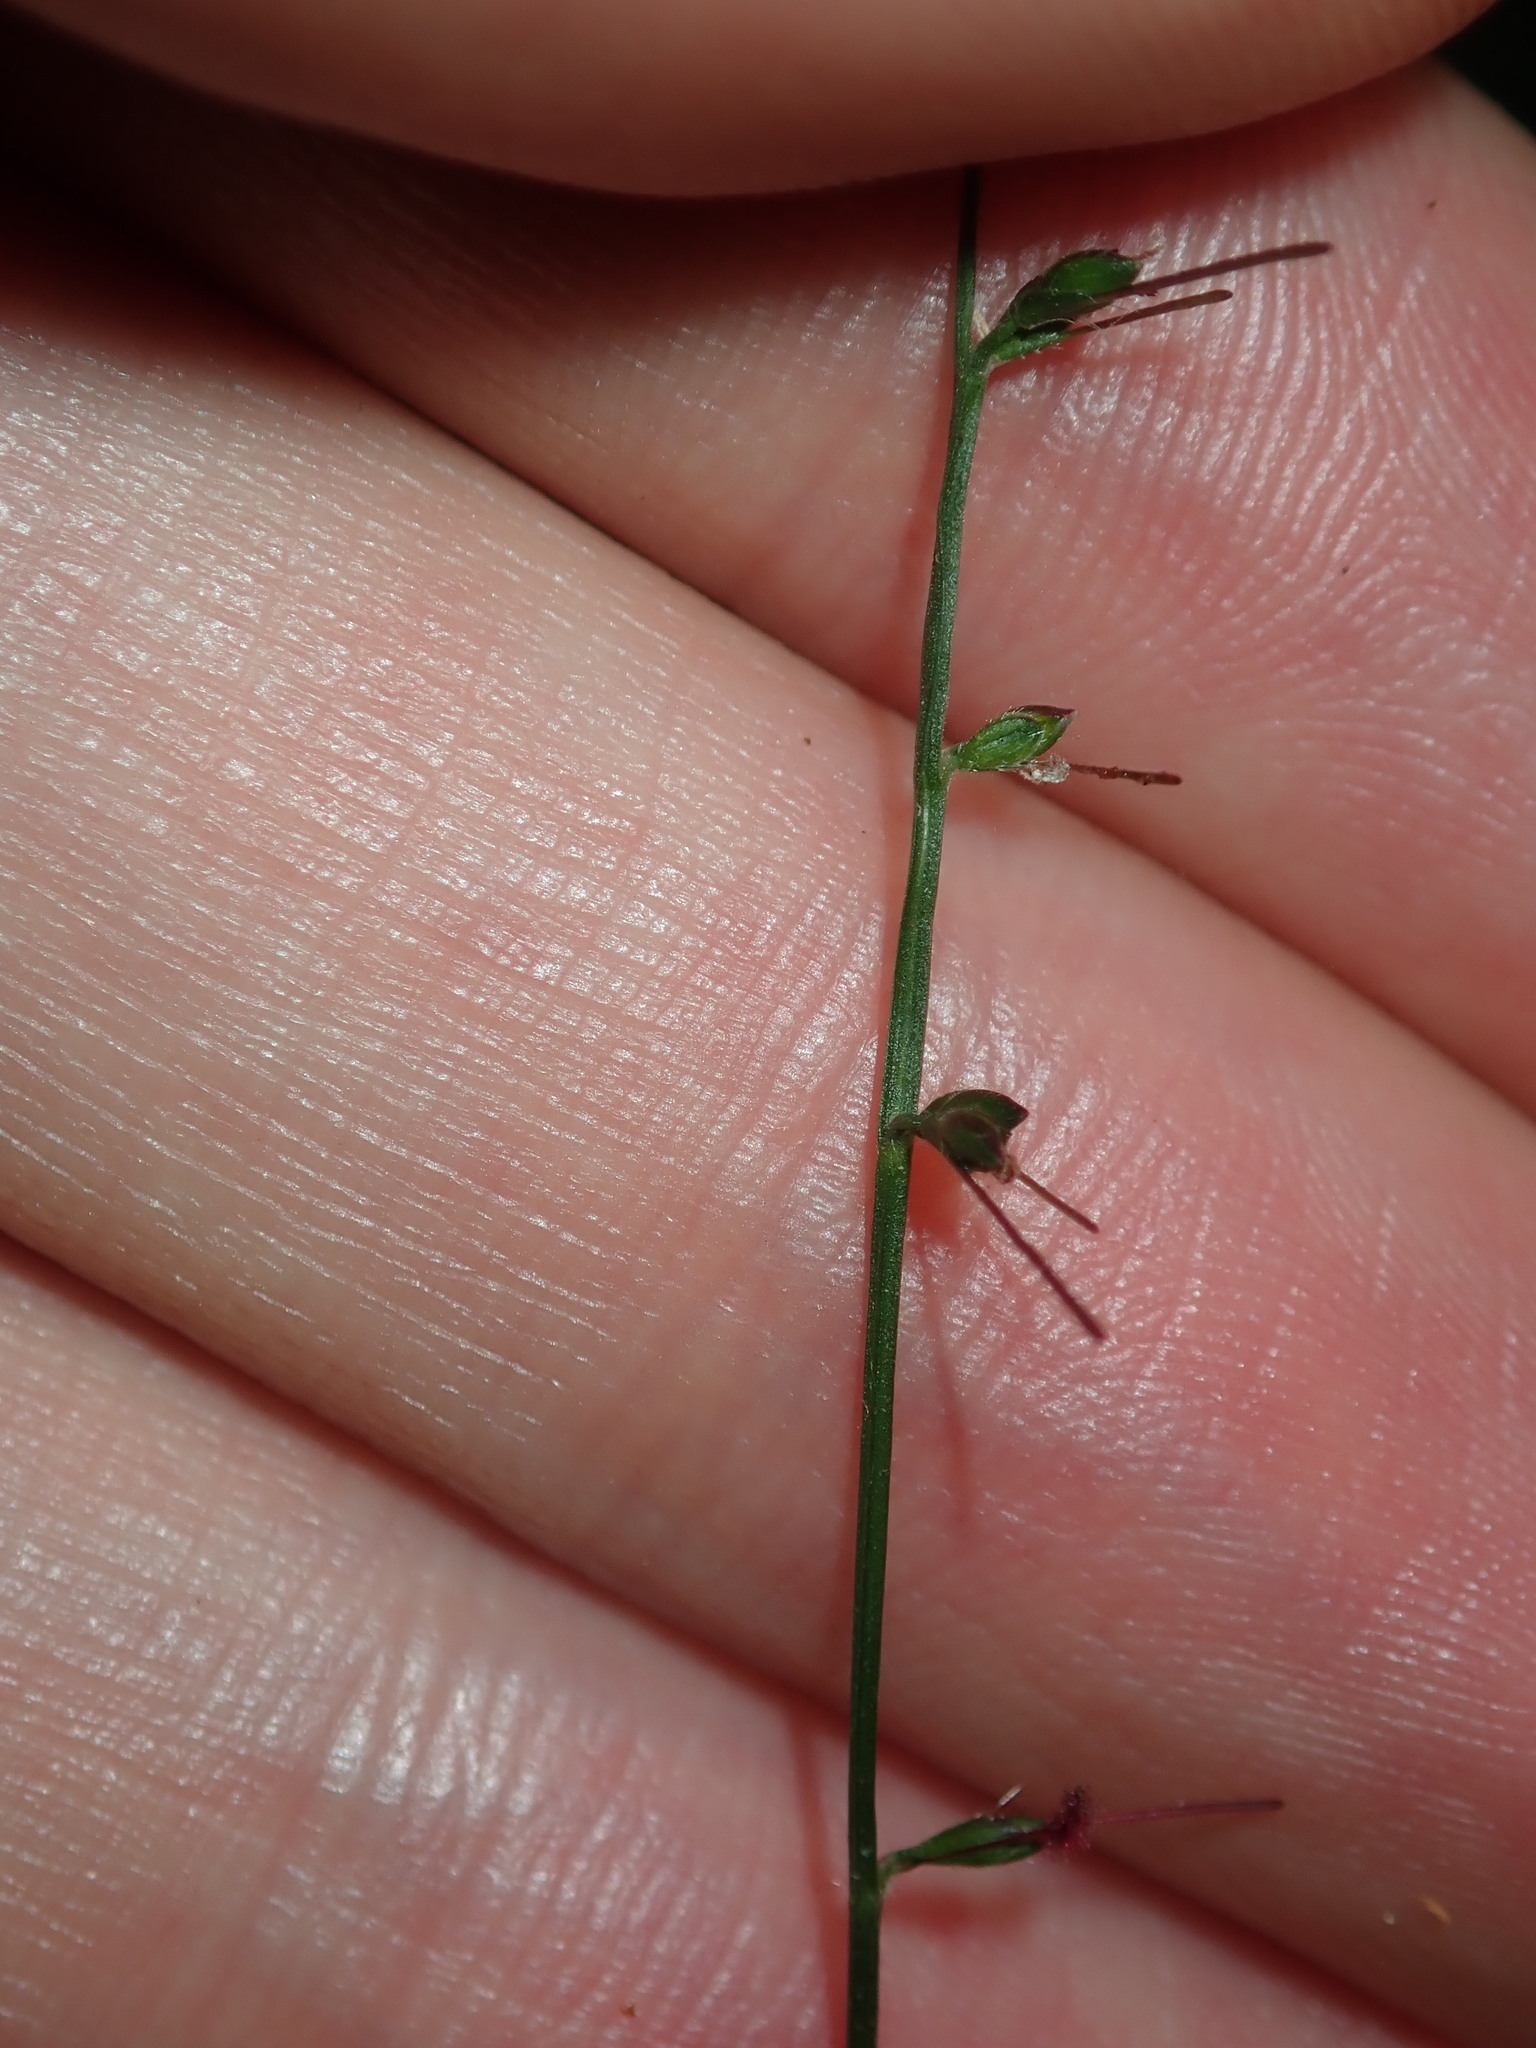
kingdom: Plantae
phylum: Tracheophyta
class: Liliopsida
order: Poales
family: Poaceae
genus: Oplismenus
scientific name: Oplismenus hirtellus
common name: Basketgrass
